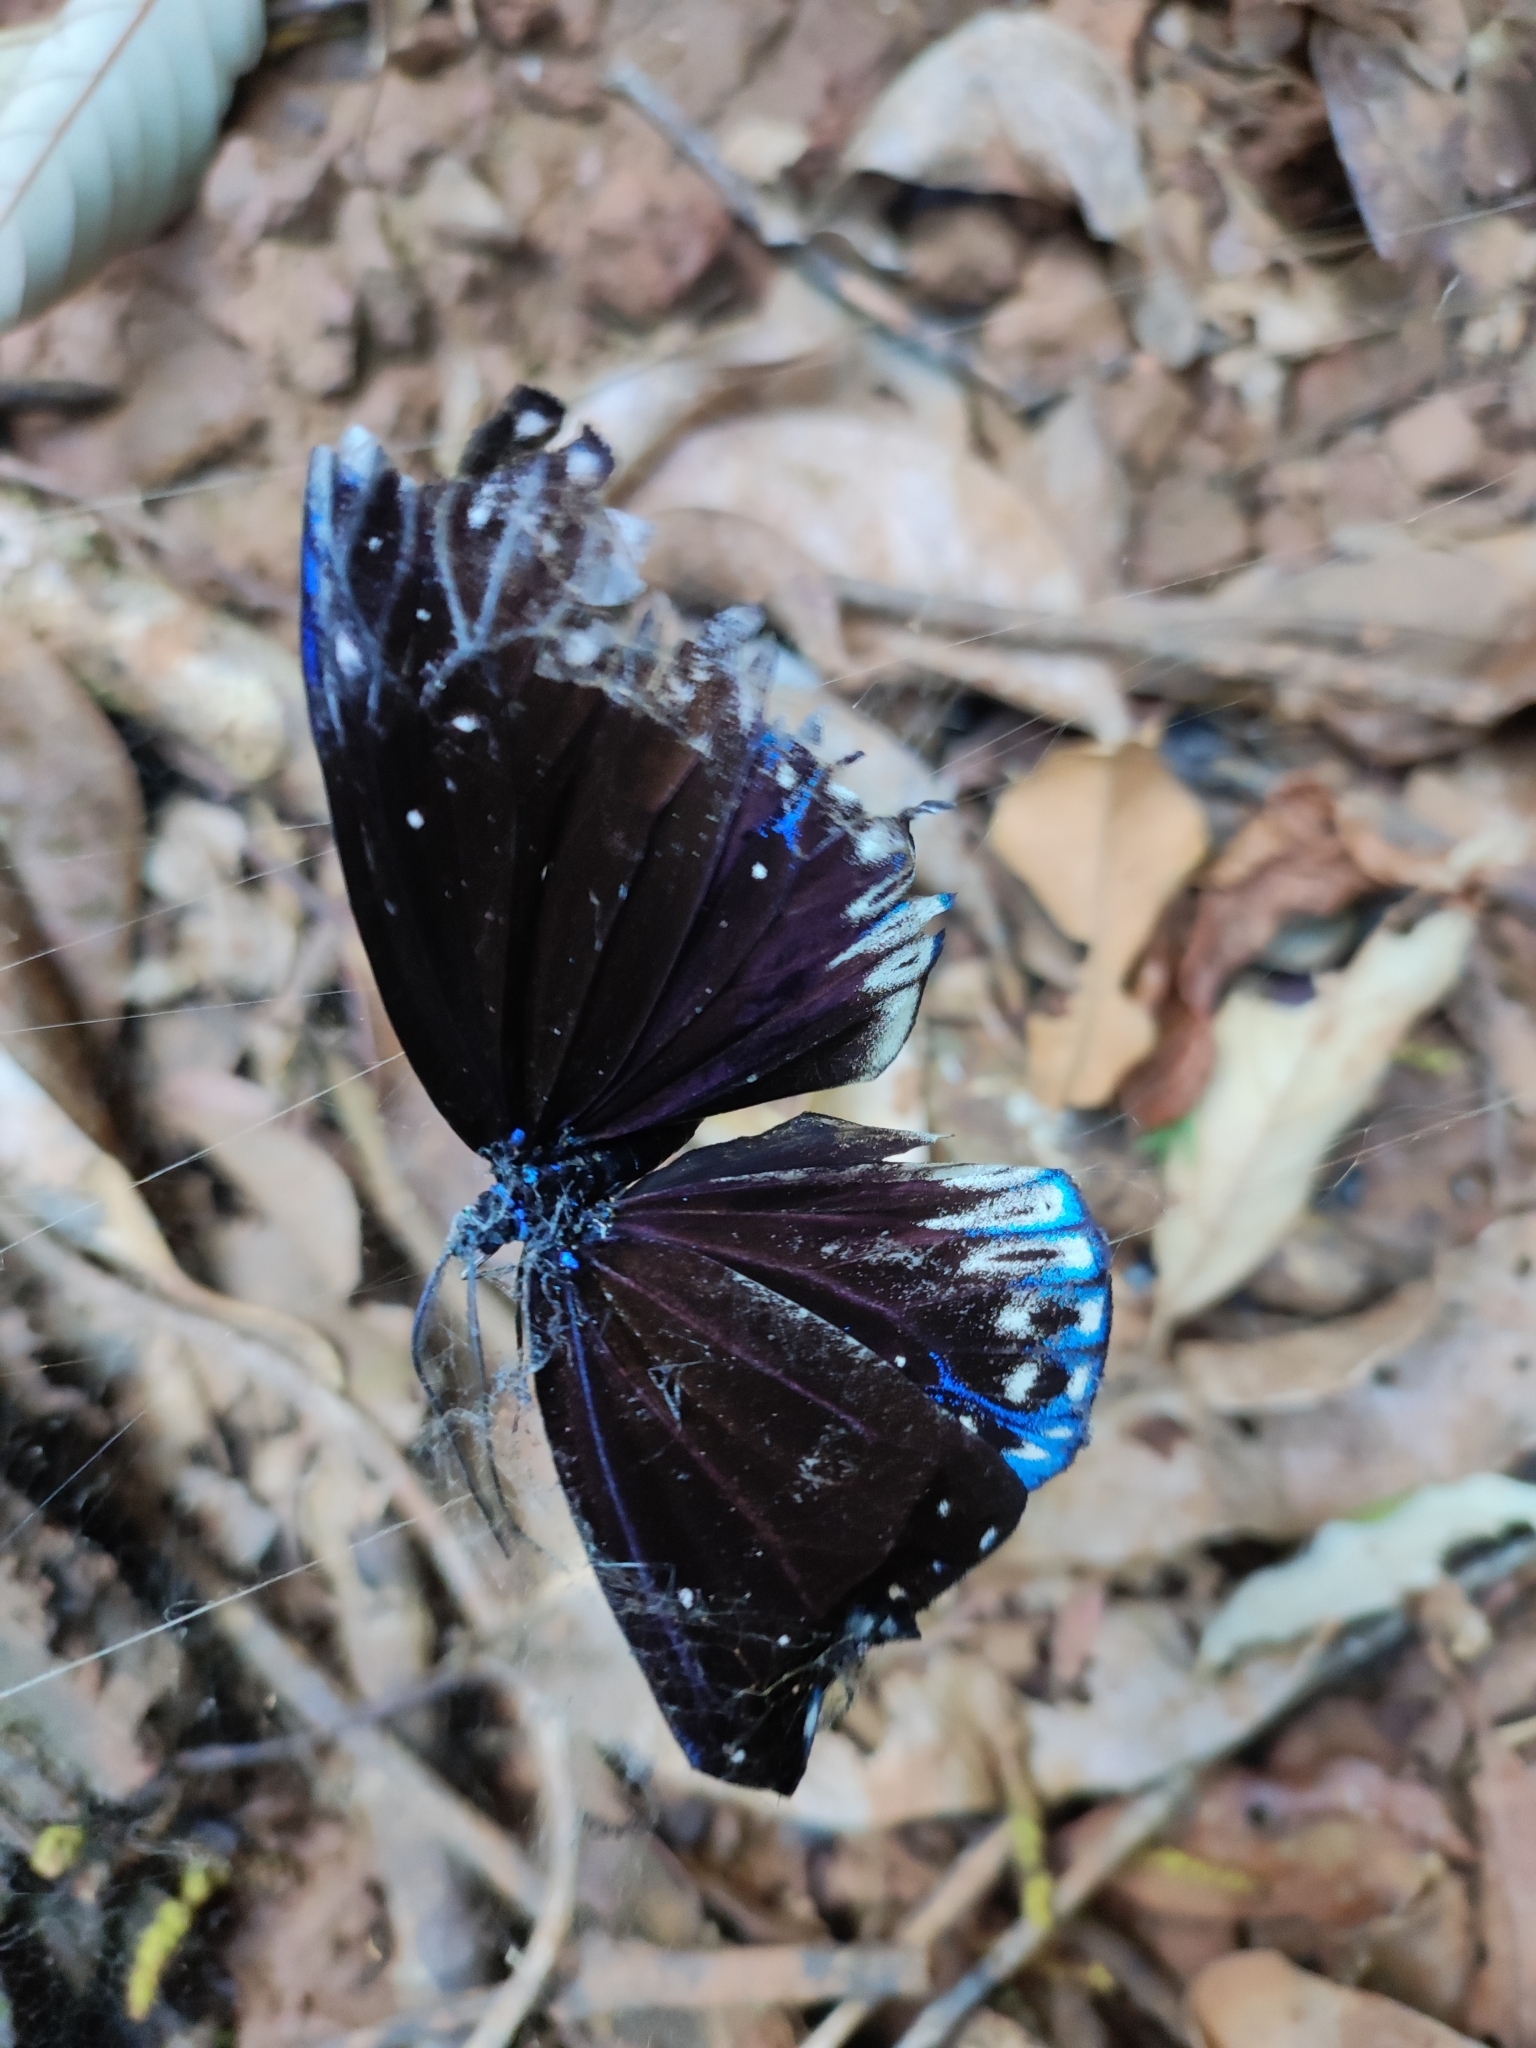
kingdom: Animalia
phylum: Arthropoda
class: Insecta
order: Lepidoptera
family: Nymphalidae
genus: Stibochiona
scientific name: Stibochiona nicea
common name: Popinjay
